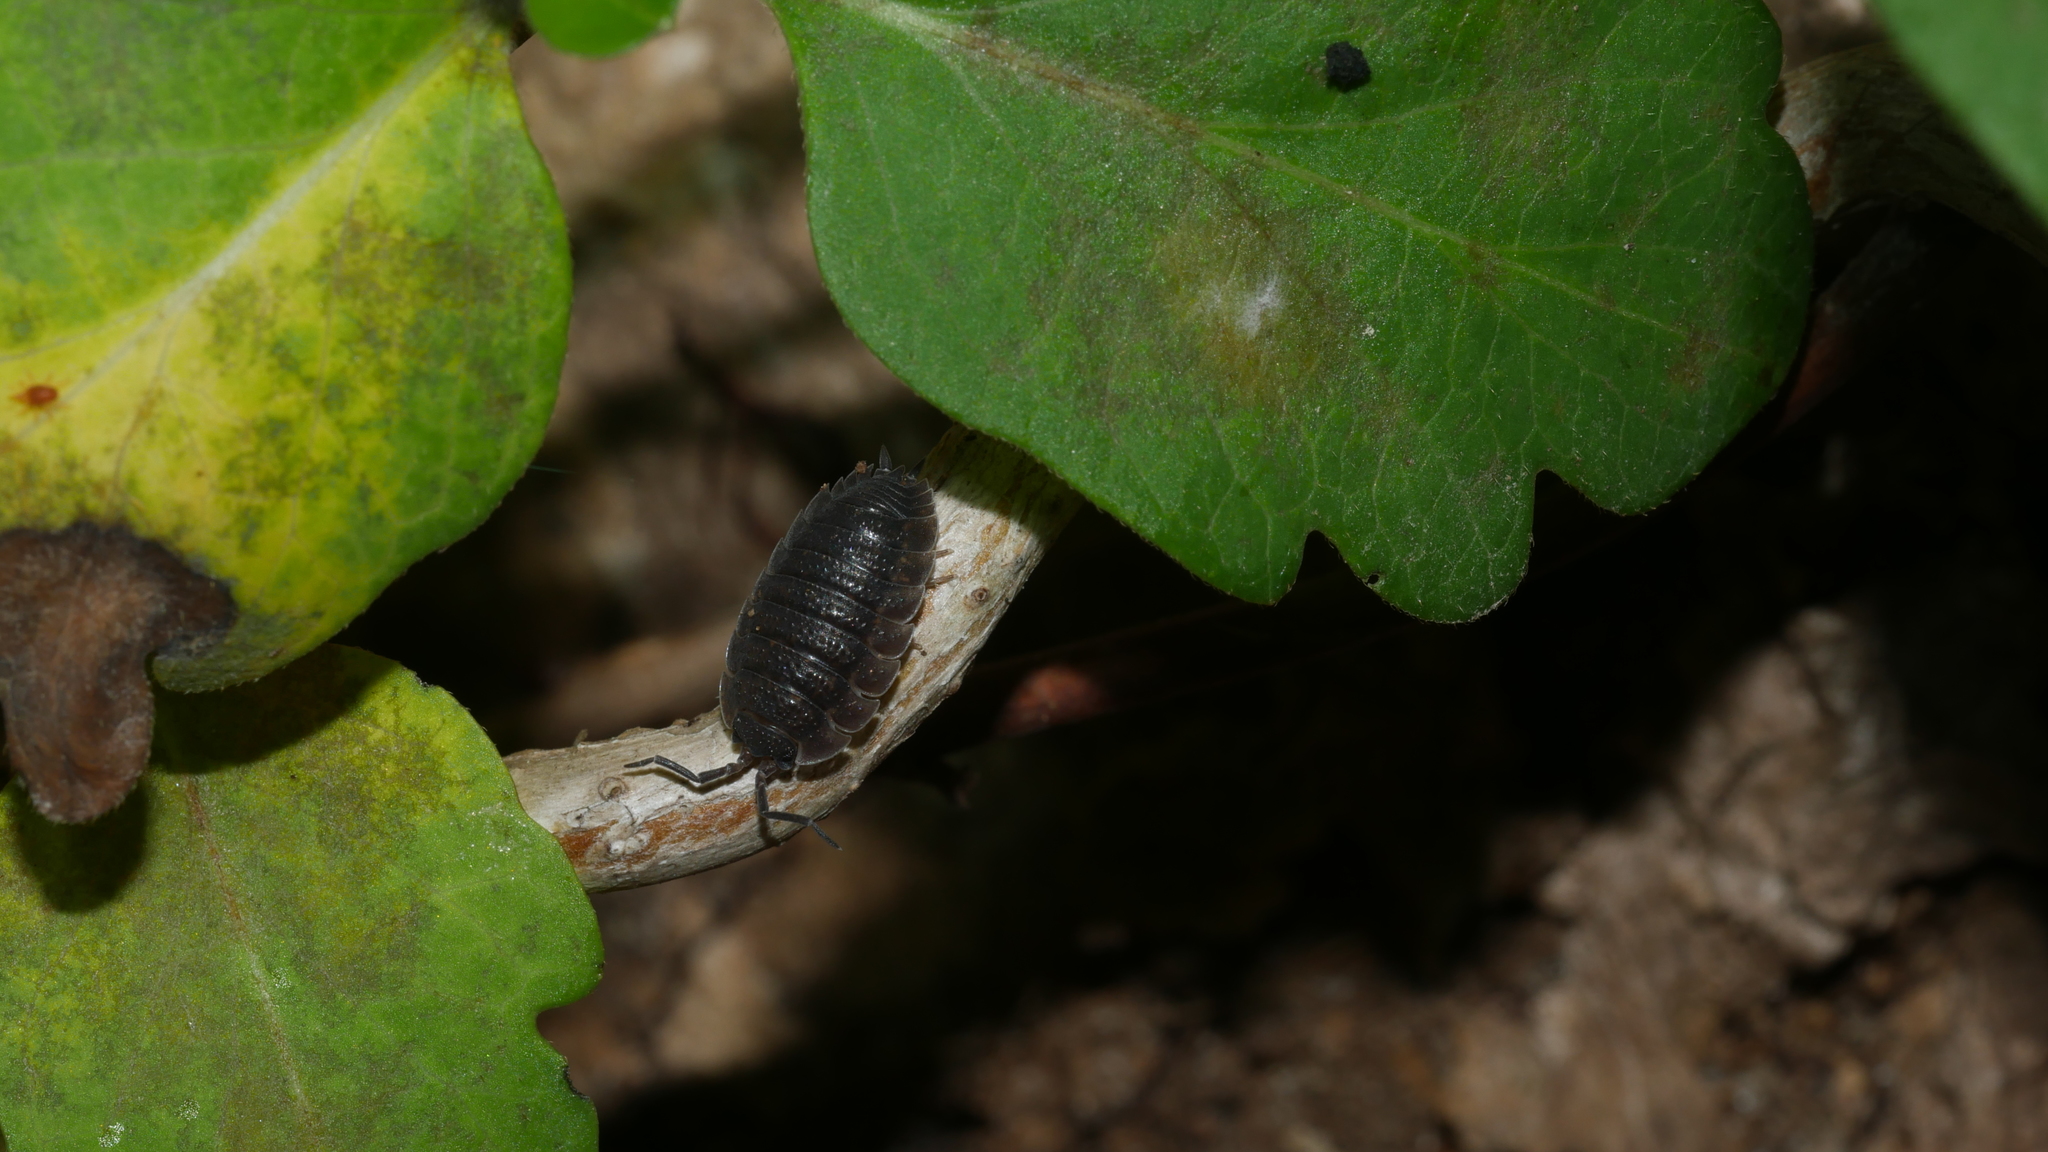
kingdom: Animalia
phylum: Arthropoda
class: Malacostraca
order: Isopoda
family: Porcellionidae
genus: Porcellio
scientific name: Porcellio scaber
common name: Common rough woodlouse
